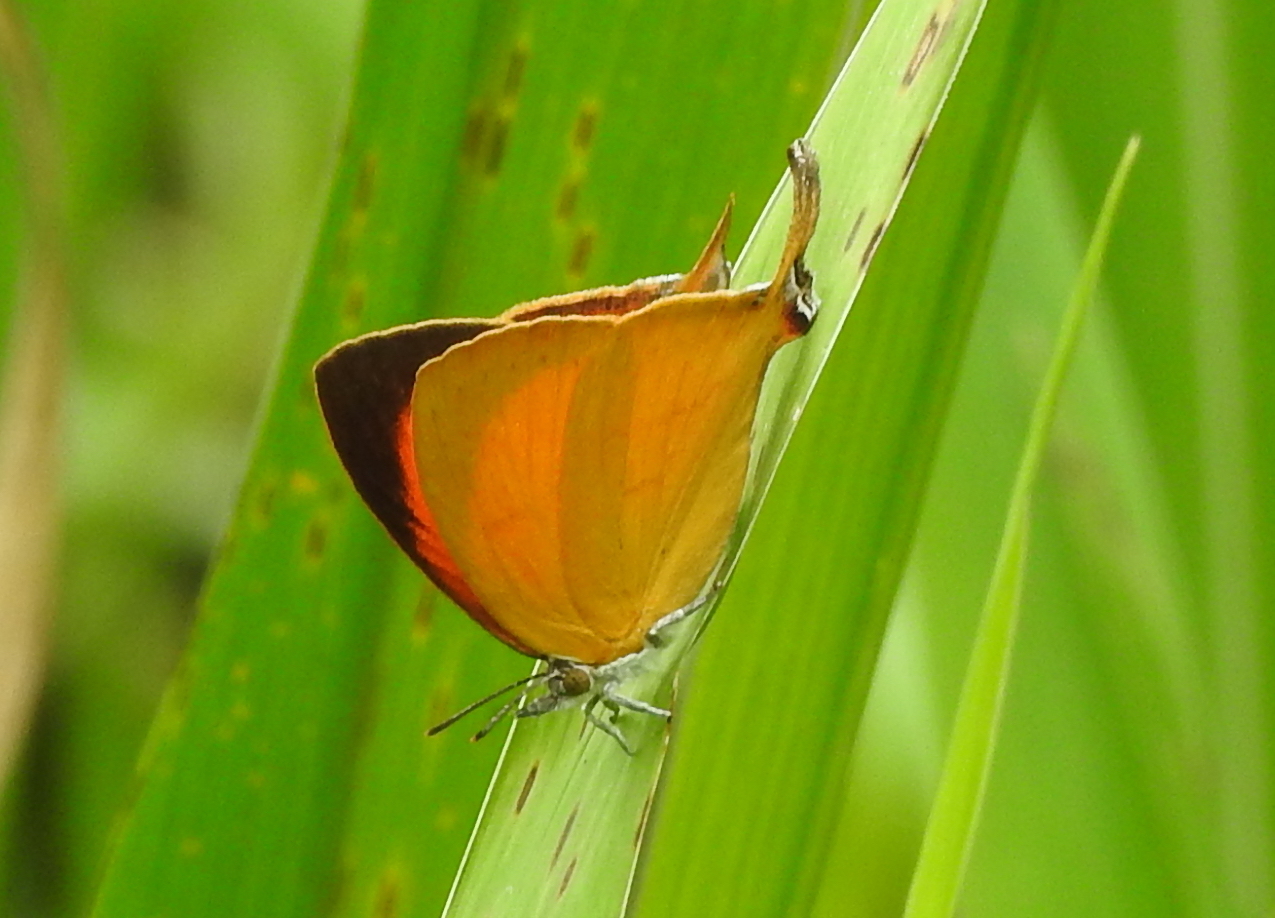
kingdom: Animalia
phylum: Arthropoda
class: Insecta
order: Lepidoptera
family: Lycaenidae
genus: Loxura
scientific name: Loxura atymnus
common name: Common yamfly
